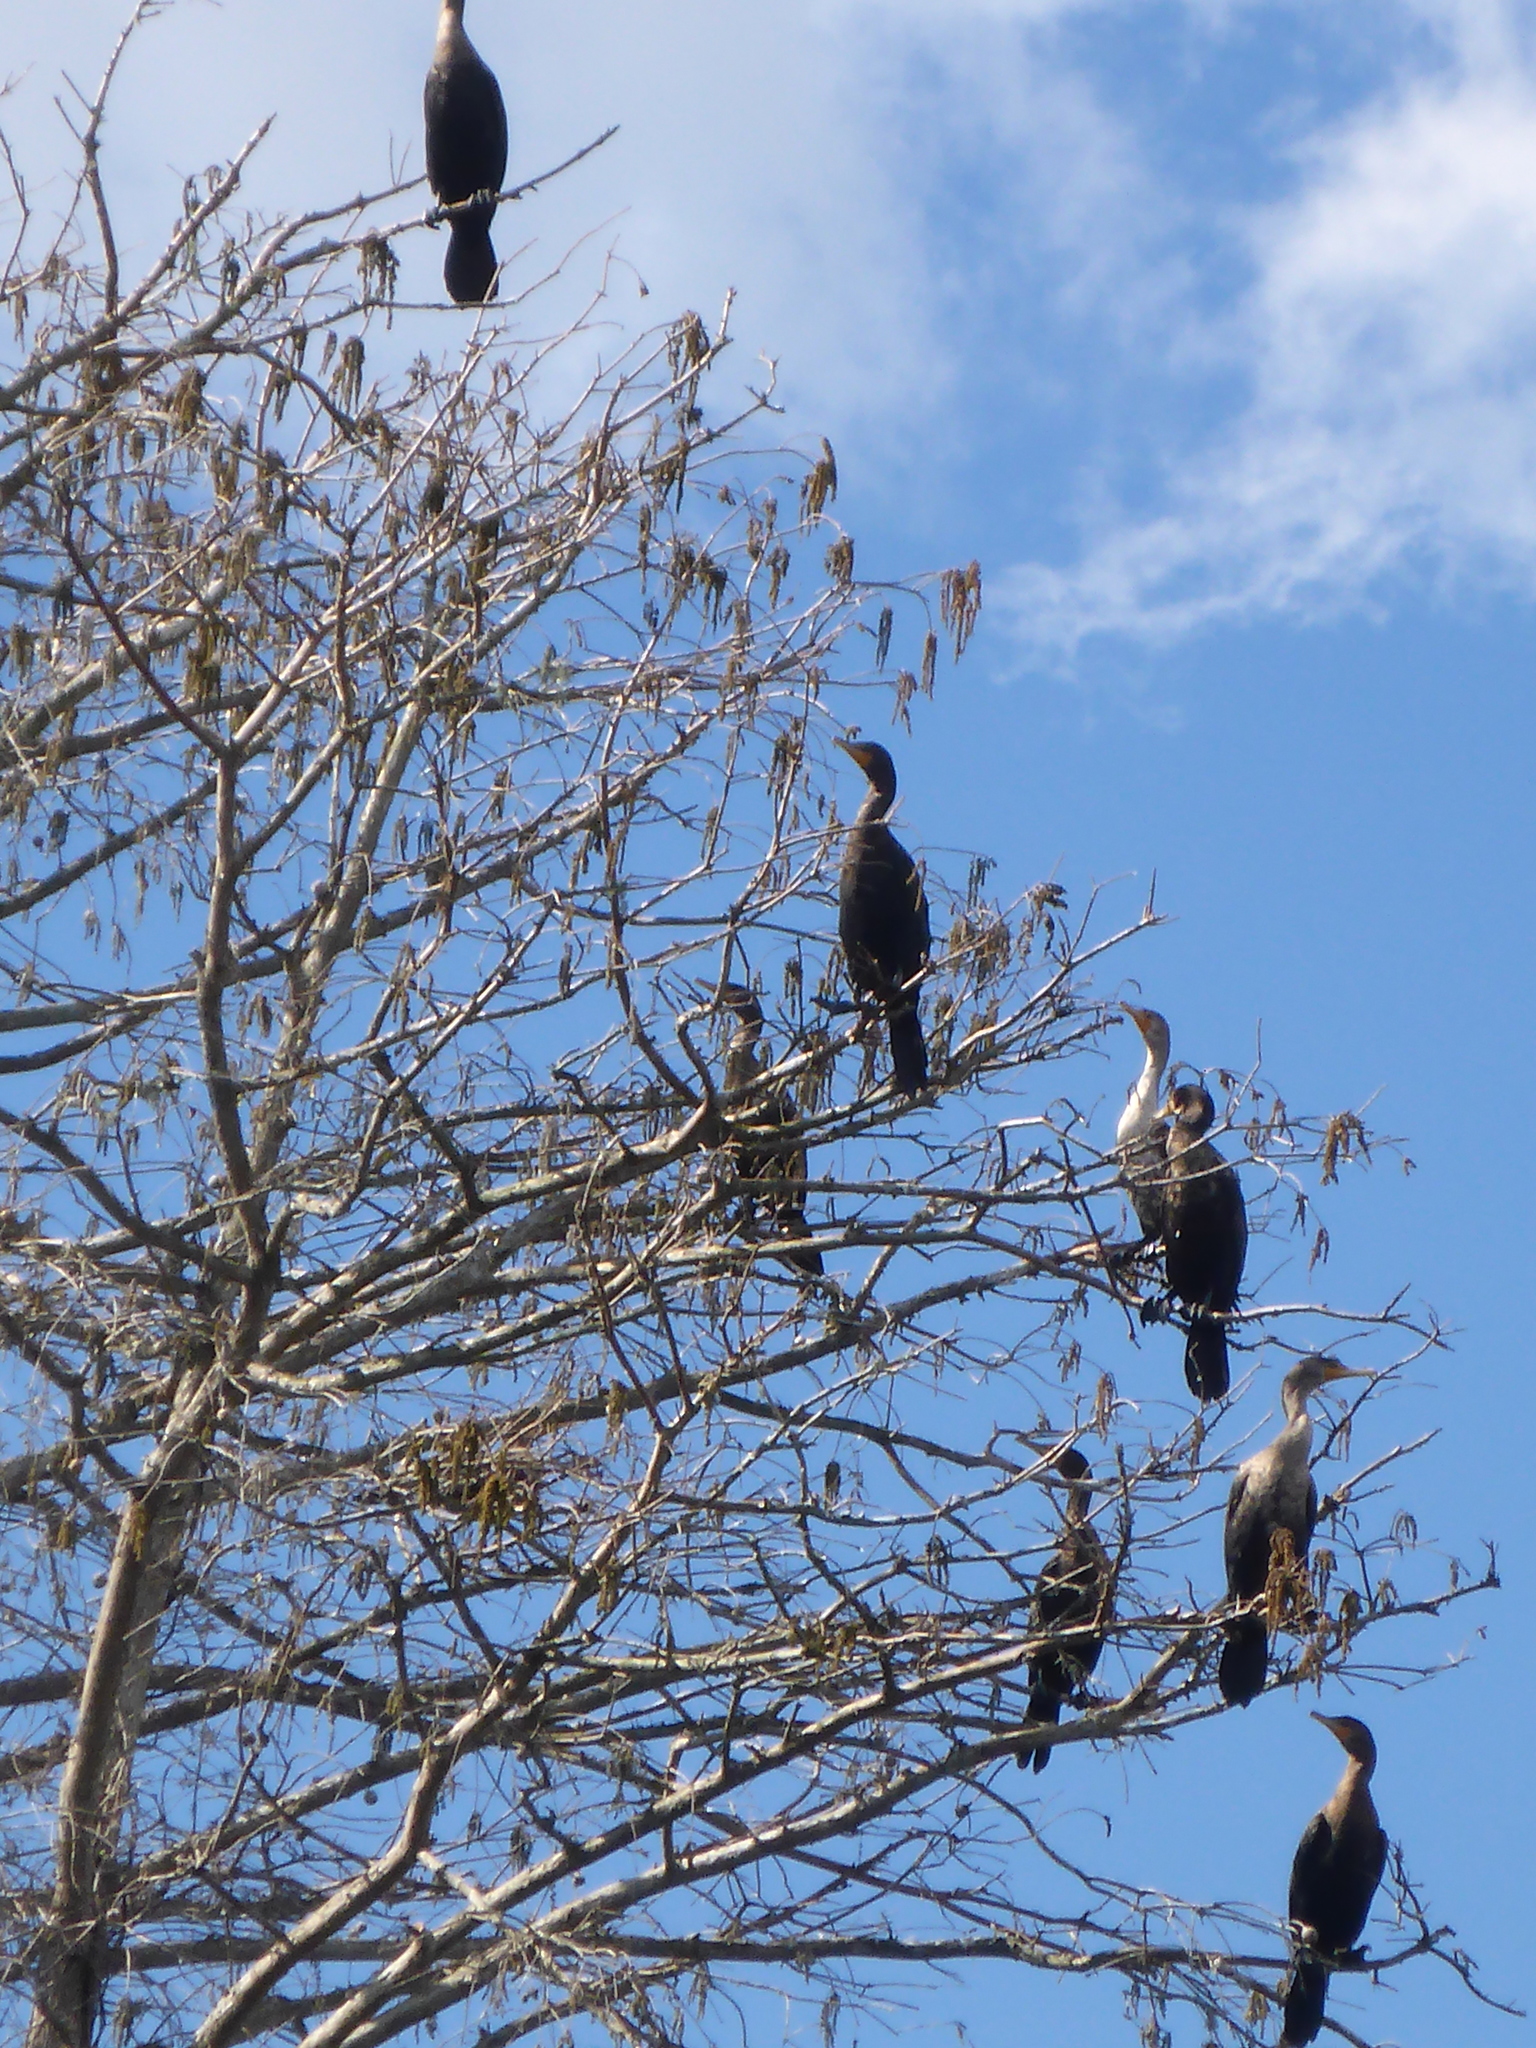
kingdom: Animalia
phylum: Chordata
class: Aves
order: Suliformes
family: Phalacrocoracidae
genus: Phalacrocorax
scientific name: Phalacrocorax auritus
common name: Double-crested cormorant
